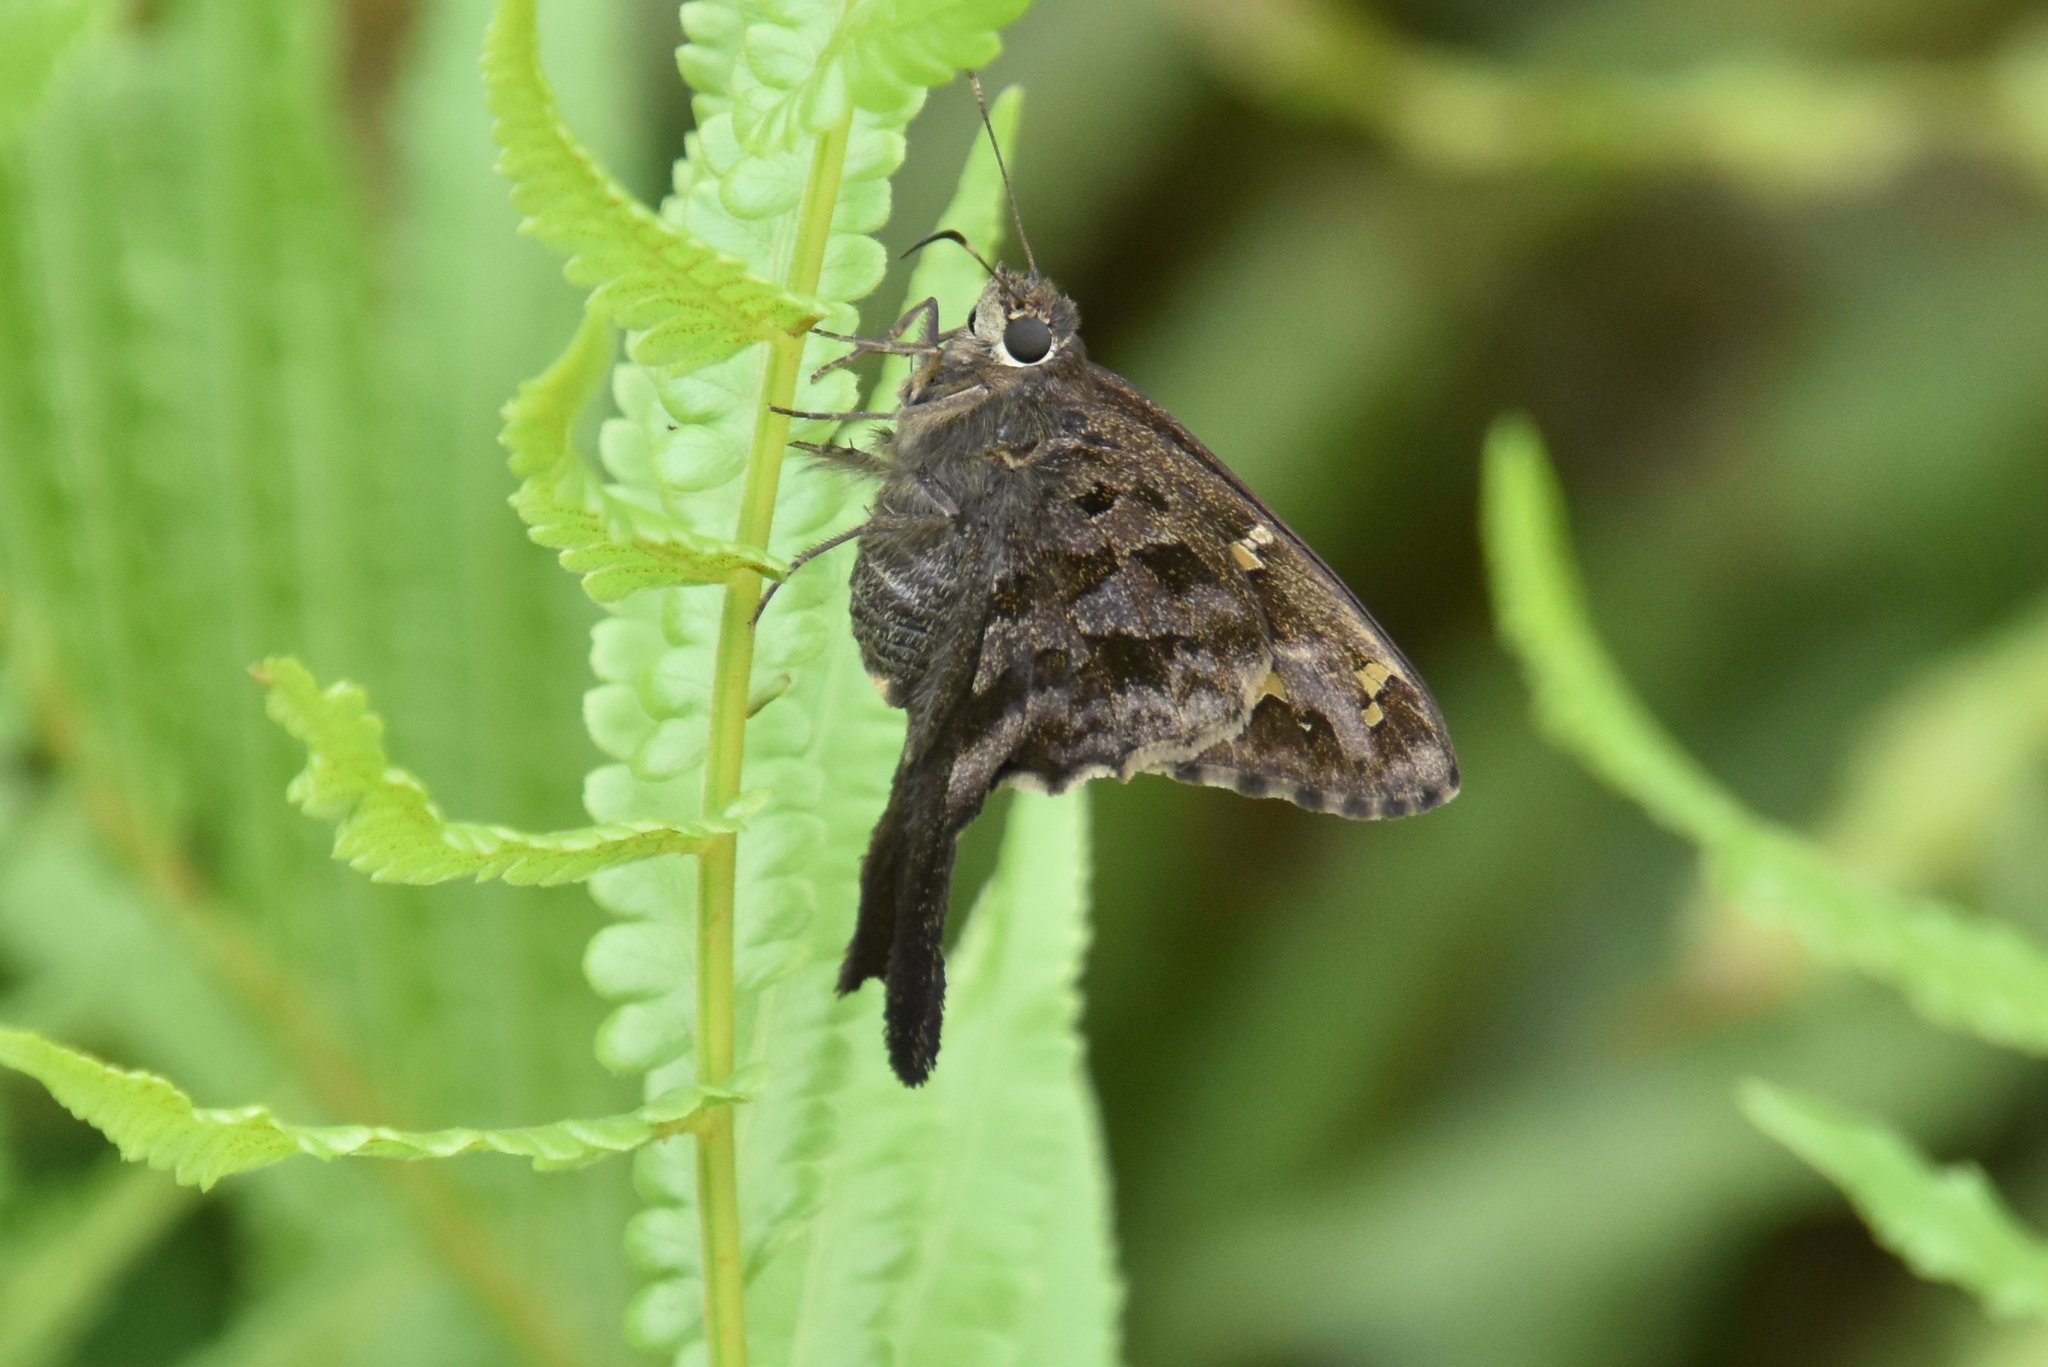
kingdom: Animalia
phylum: Arthropoda
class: Insecta
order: Lepidoptera
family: Hesperiidae
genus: Thorybes
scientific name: Thorybes
